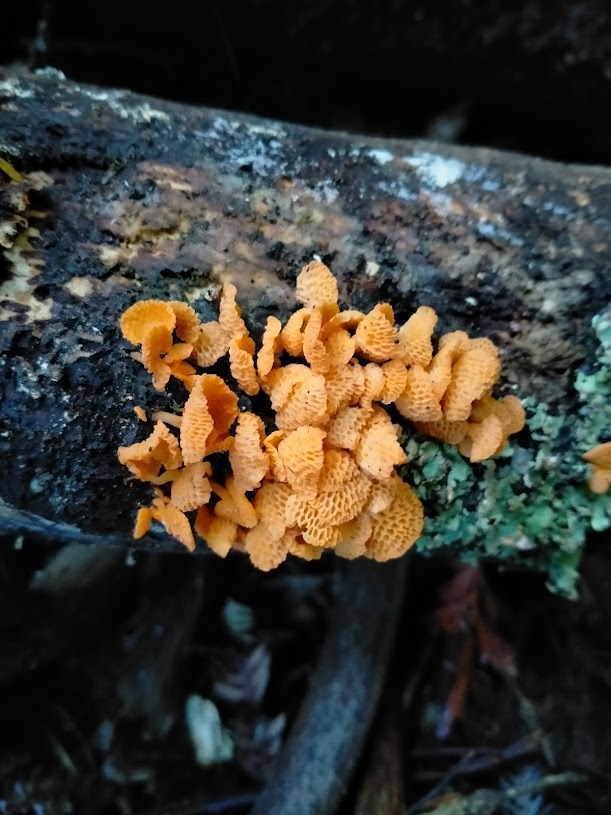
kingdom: Fungi
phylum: Basidiomycota
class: Agaricomycetes
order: Agaricales
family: Mycenaceae
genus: Favolaschia
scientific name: Favolaschia claudopus
